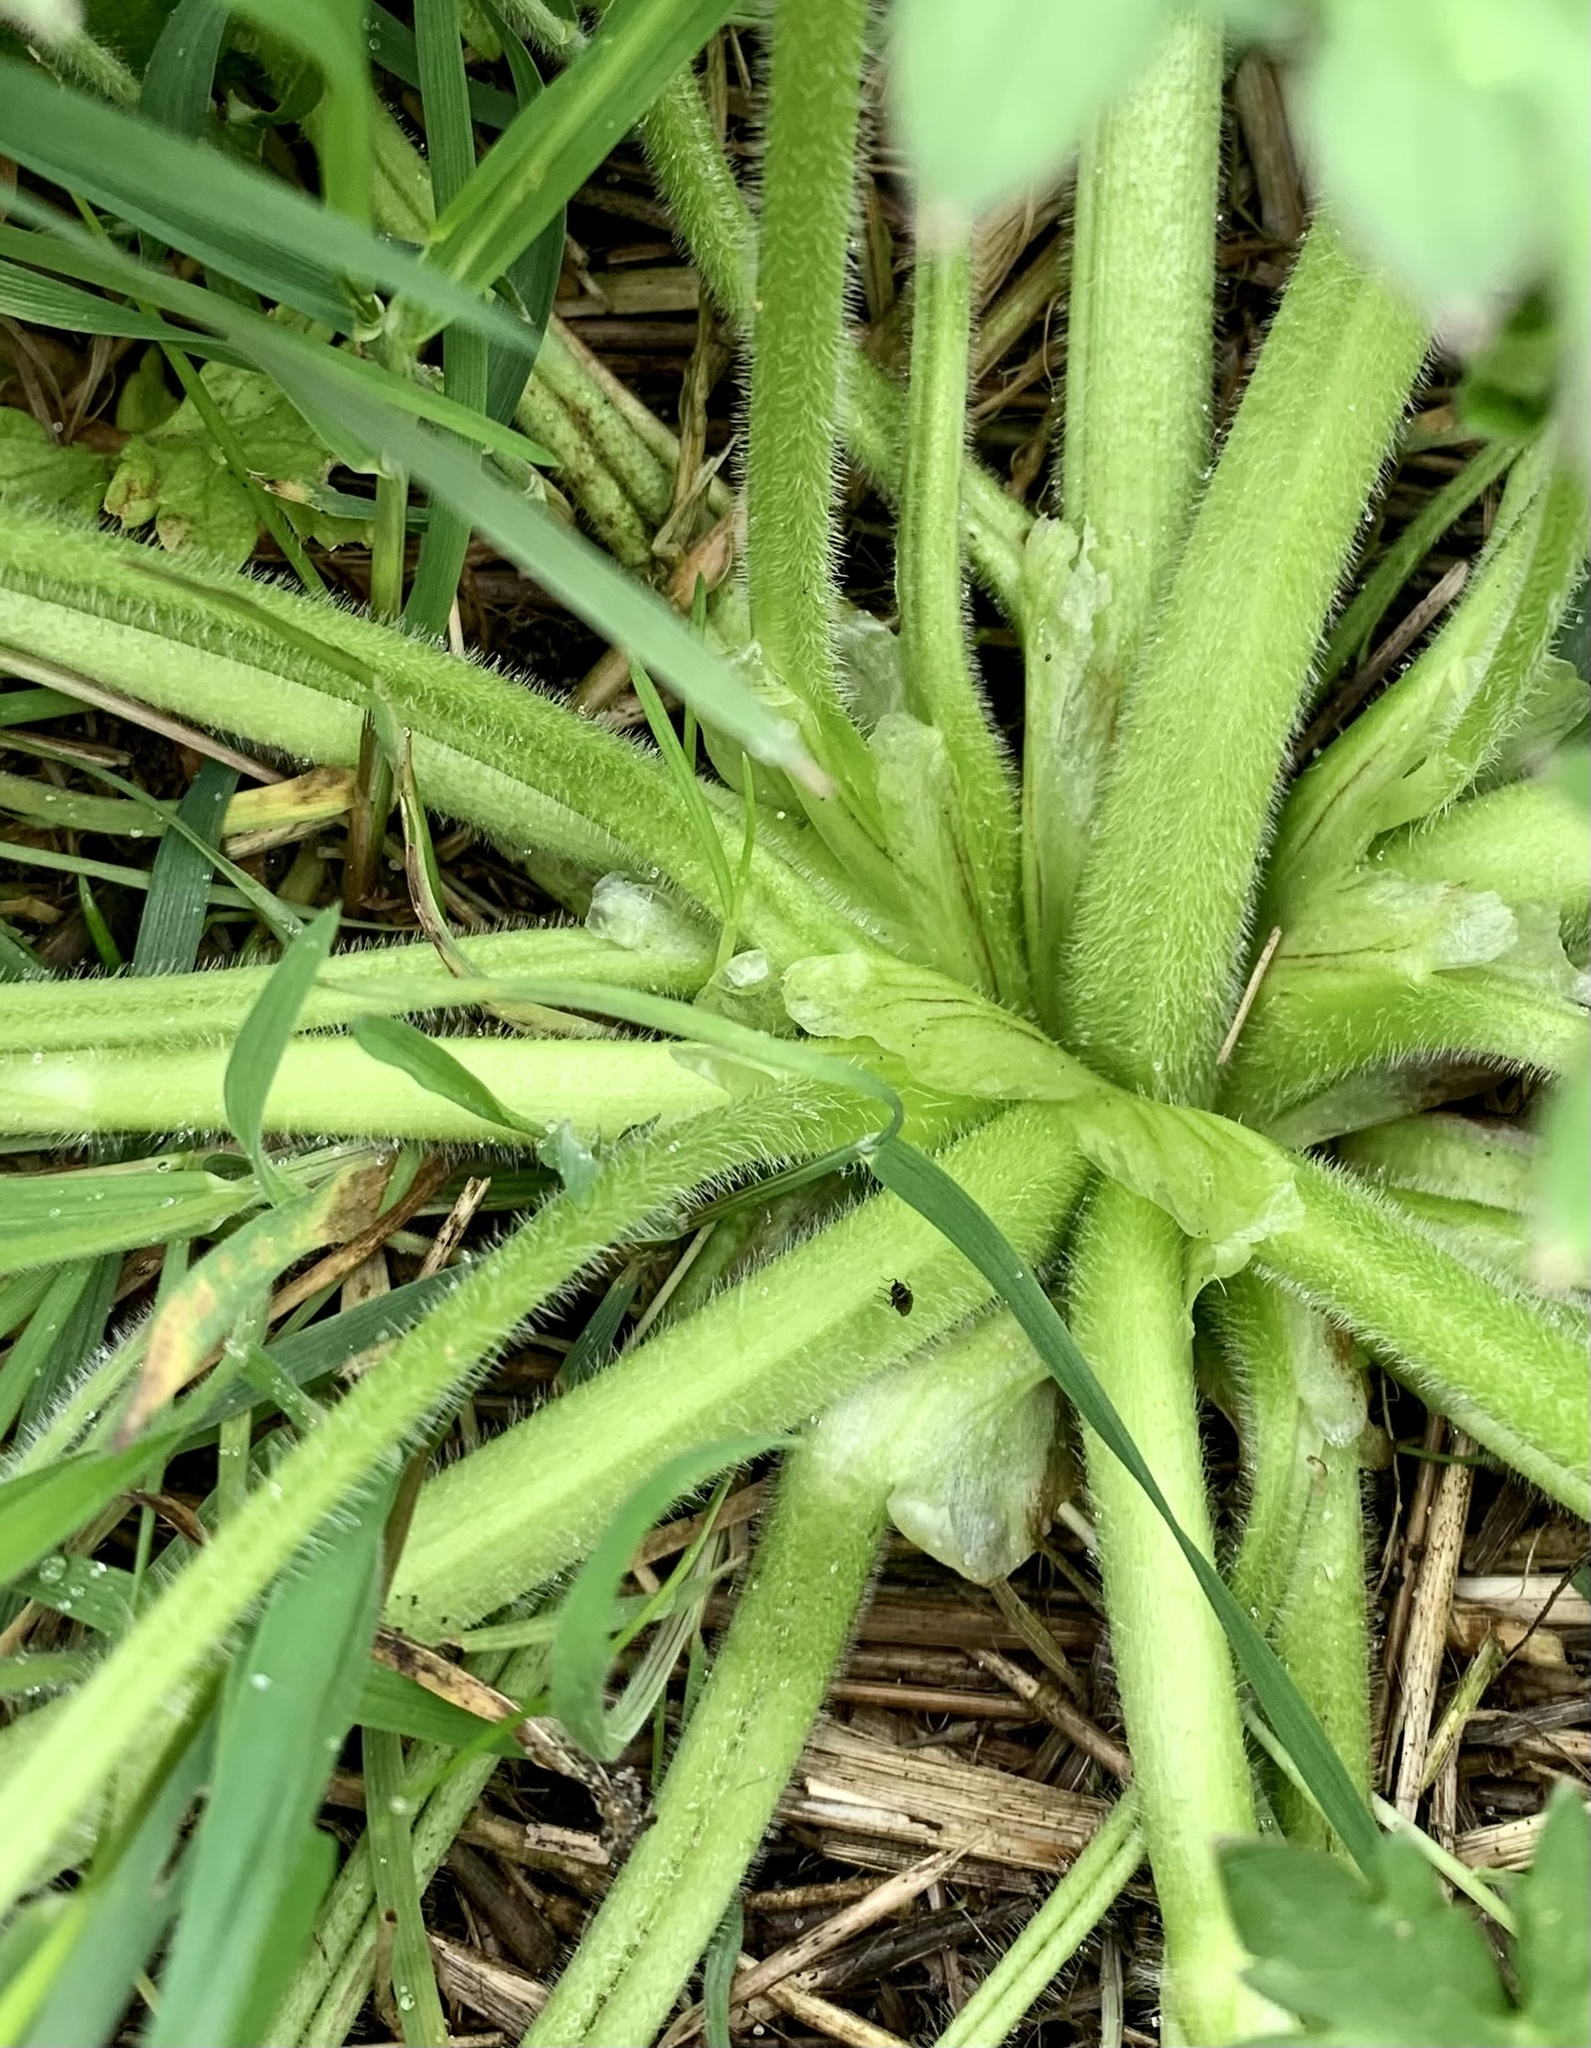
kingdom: Plantae
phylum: Tracheophyta
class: Magnoliopsida
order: Ranunculales
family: Ranunculaceae
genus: Ranunculus
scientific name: Ranunculus repens
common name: Creeping buttercup
